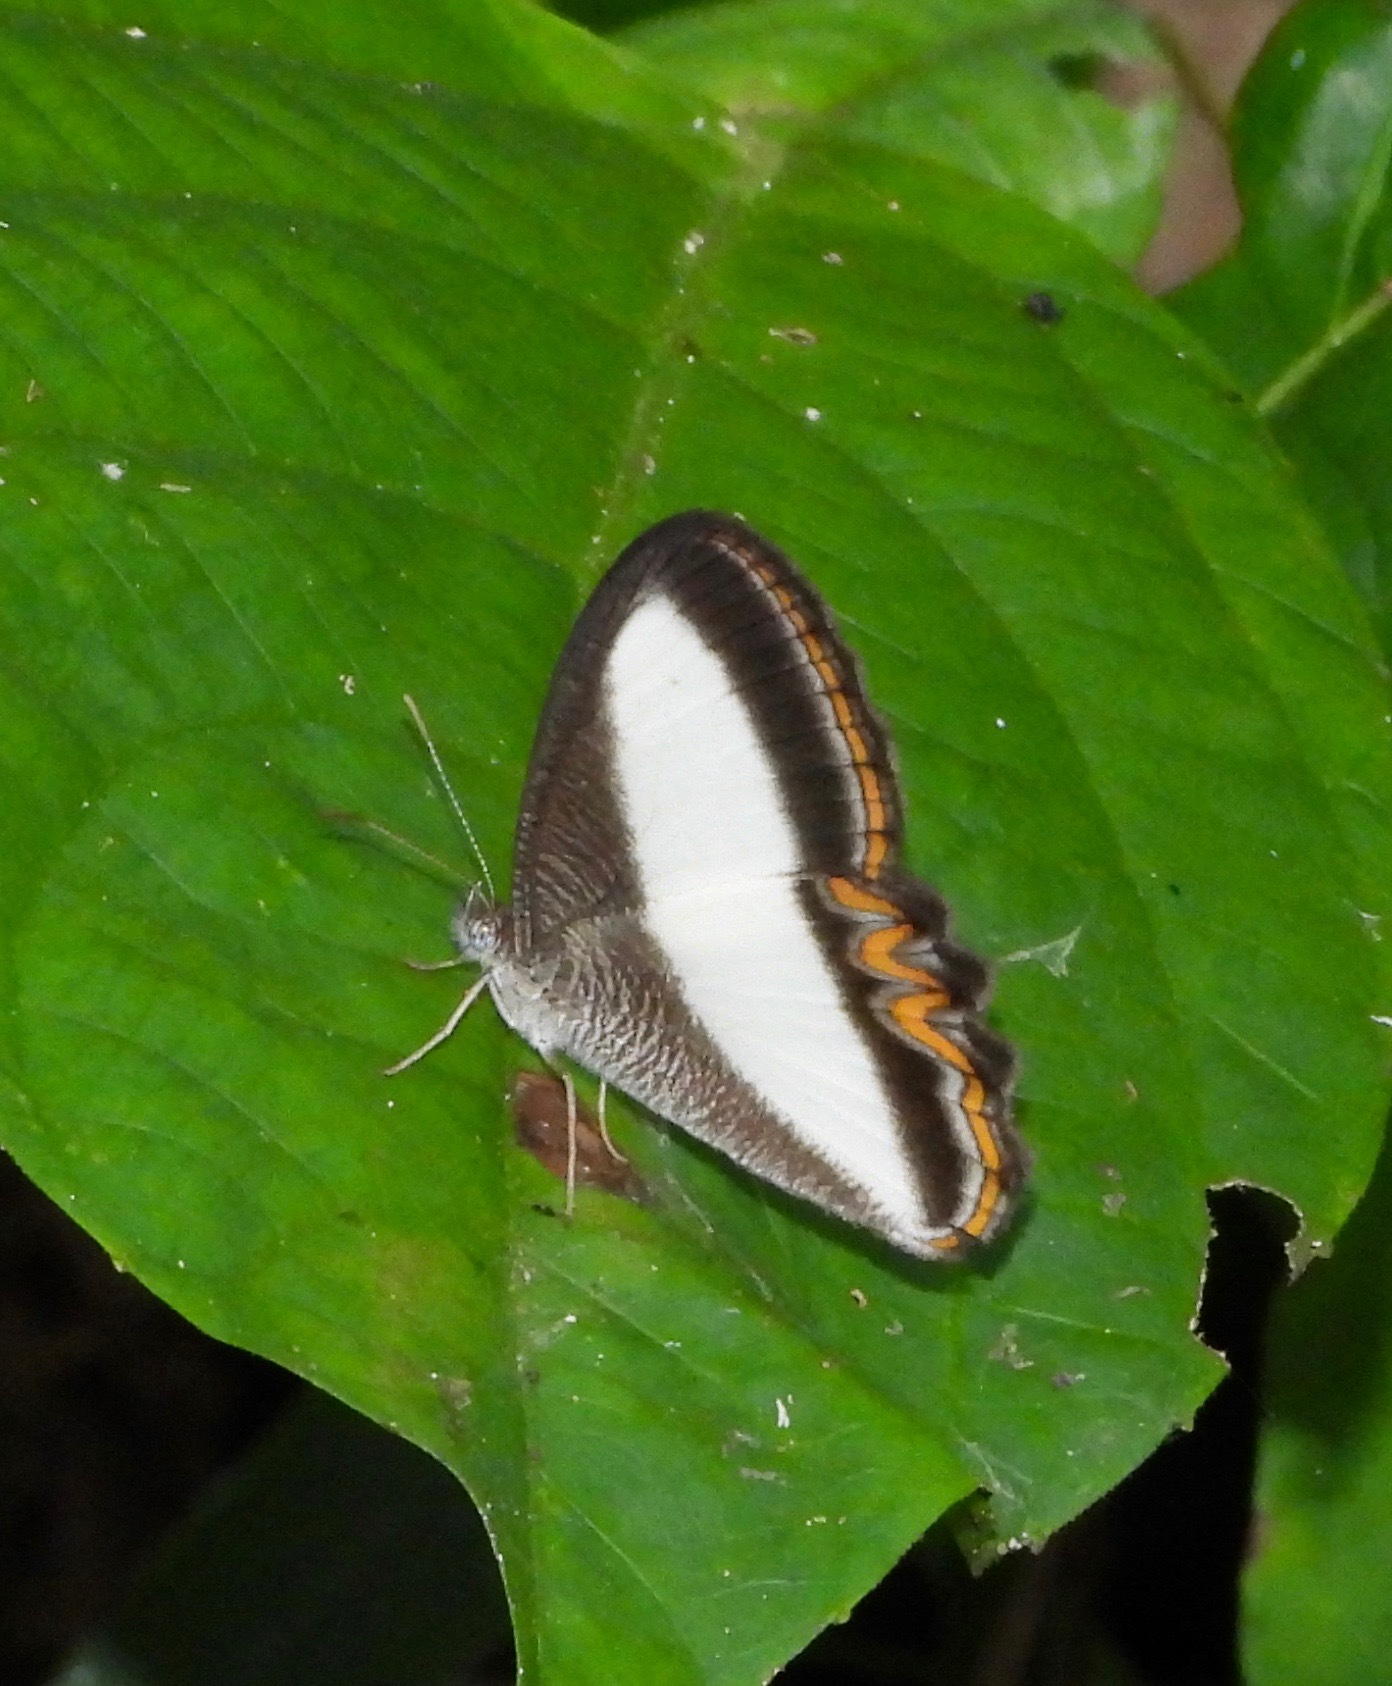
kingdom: Animalia
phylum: Arthropoda
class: Insecta
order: Lepidoptera
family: Nymphalidae
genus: Oressinoma
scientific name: Oressinoma typhla
